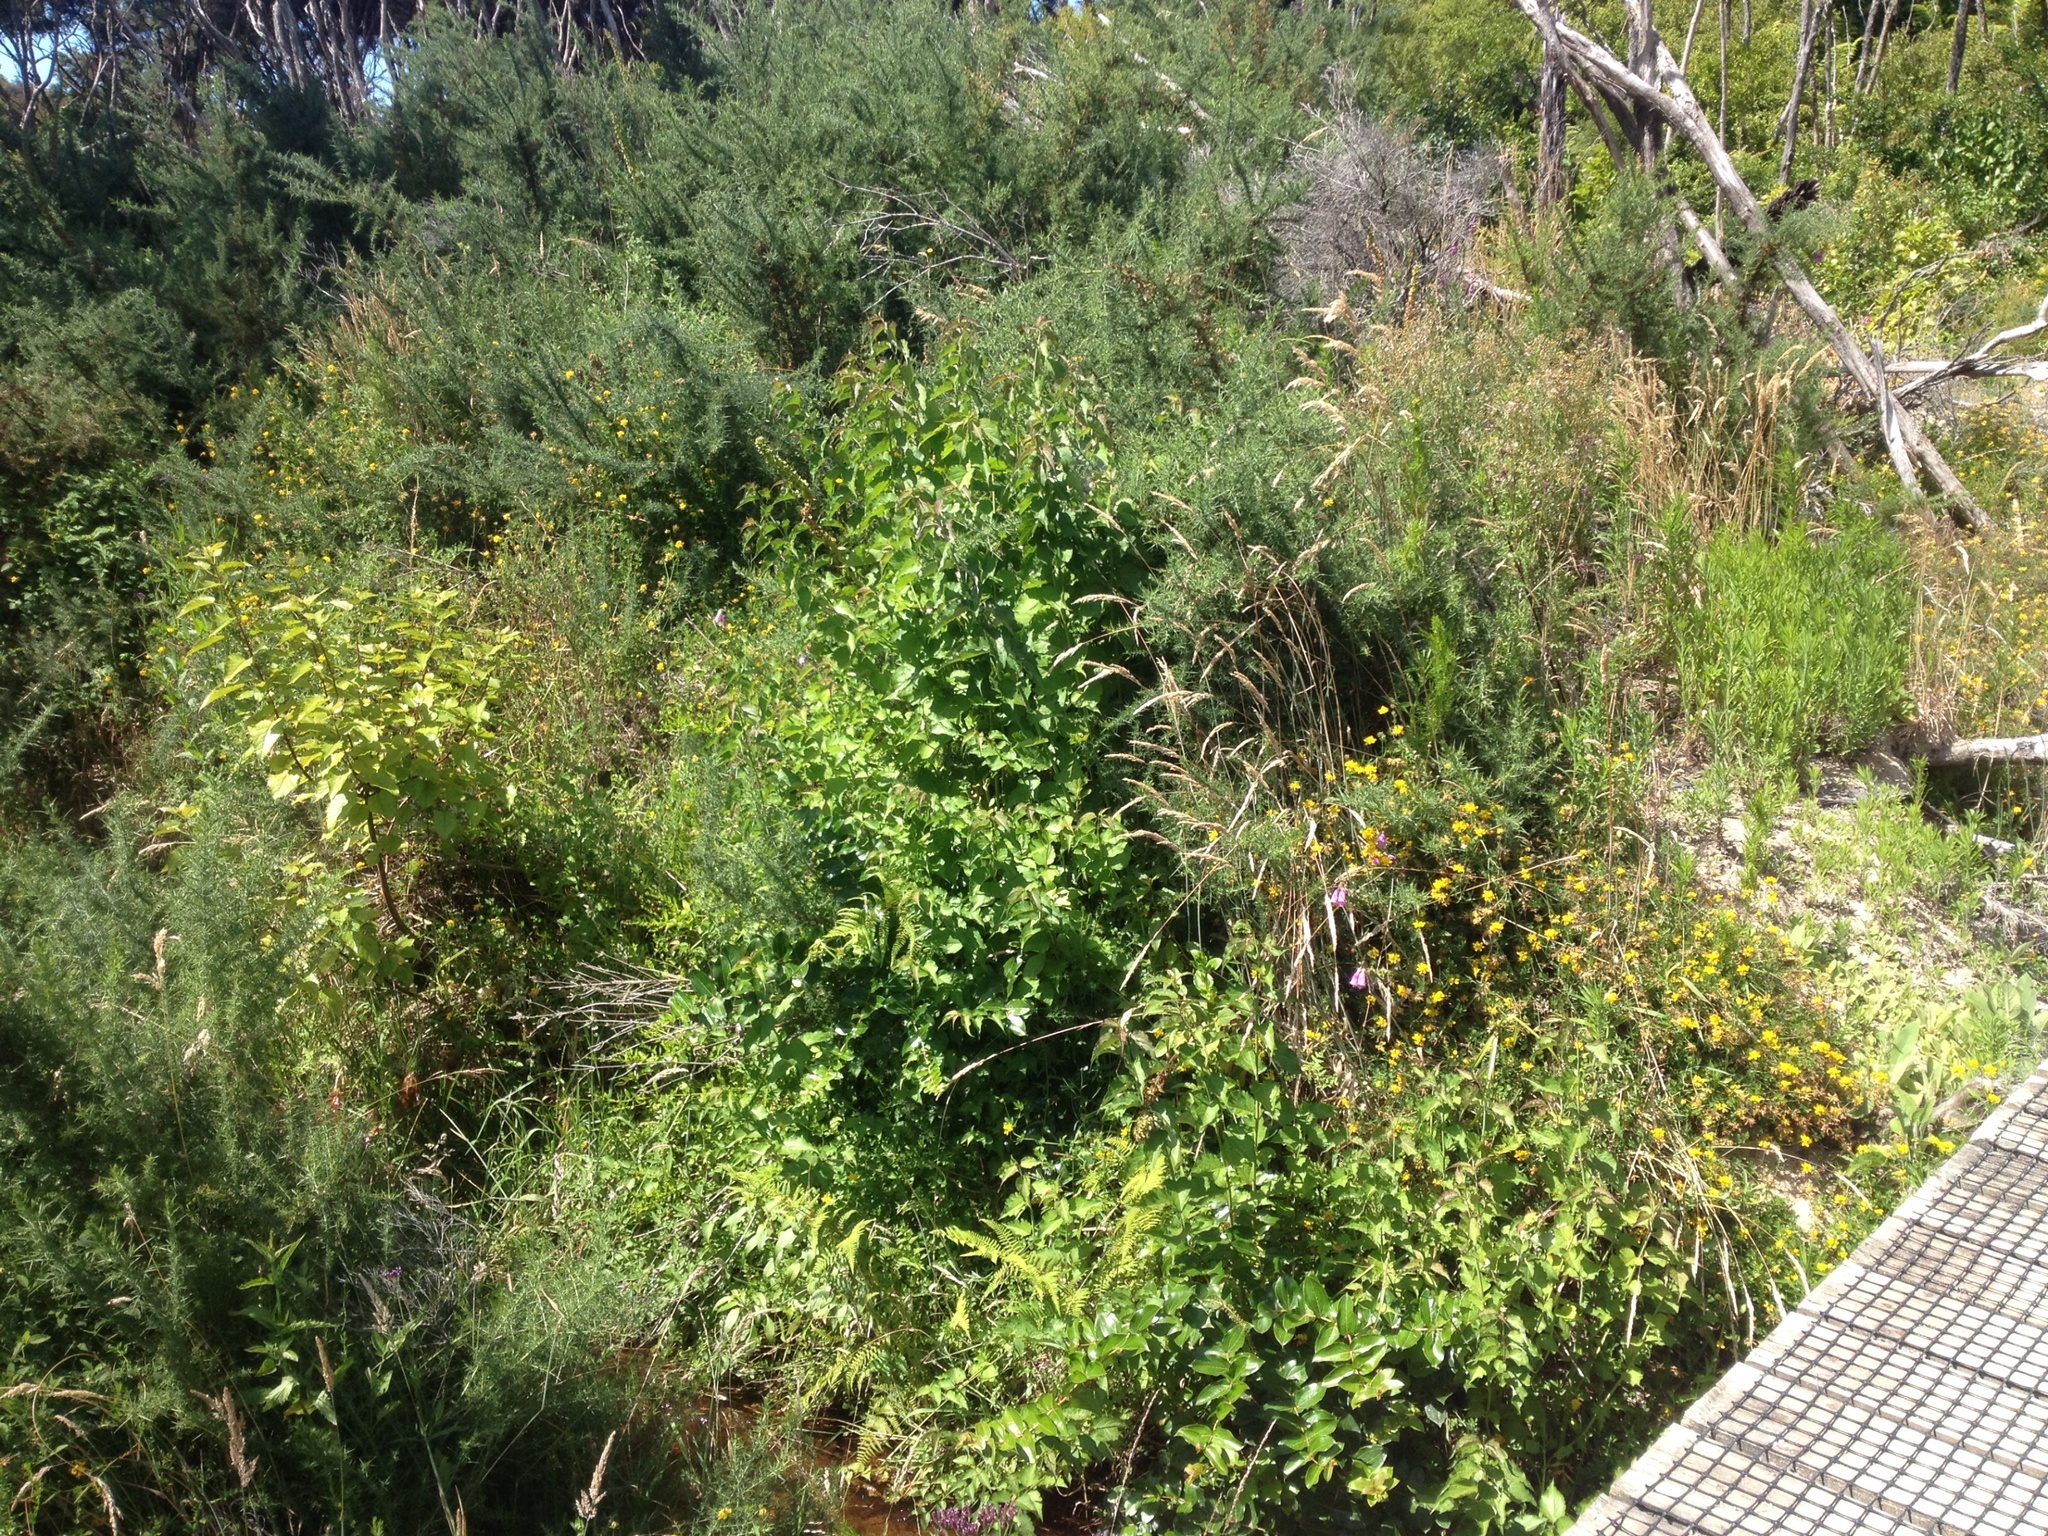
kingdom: Plantae
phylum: Tracheophyta
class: Magnoliopsida
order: Dipsacales
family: Caprifoliaceae
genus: Leycesteria
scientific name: Leycesteria formosa
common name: Himalayan honeysuckle
